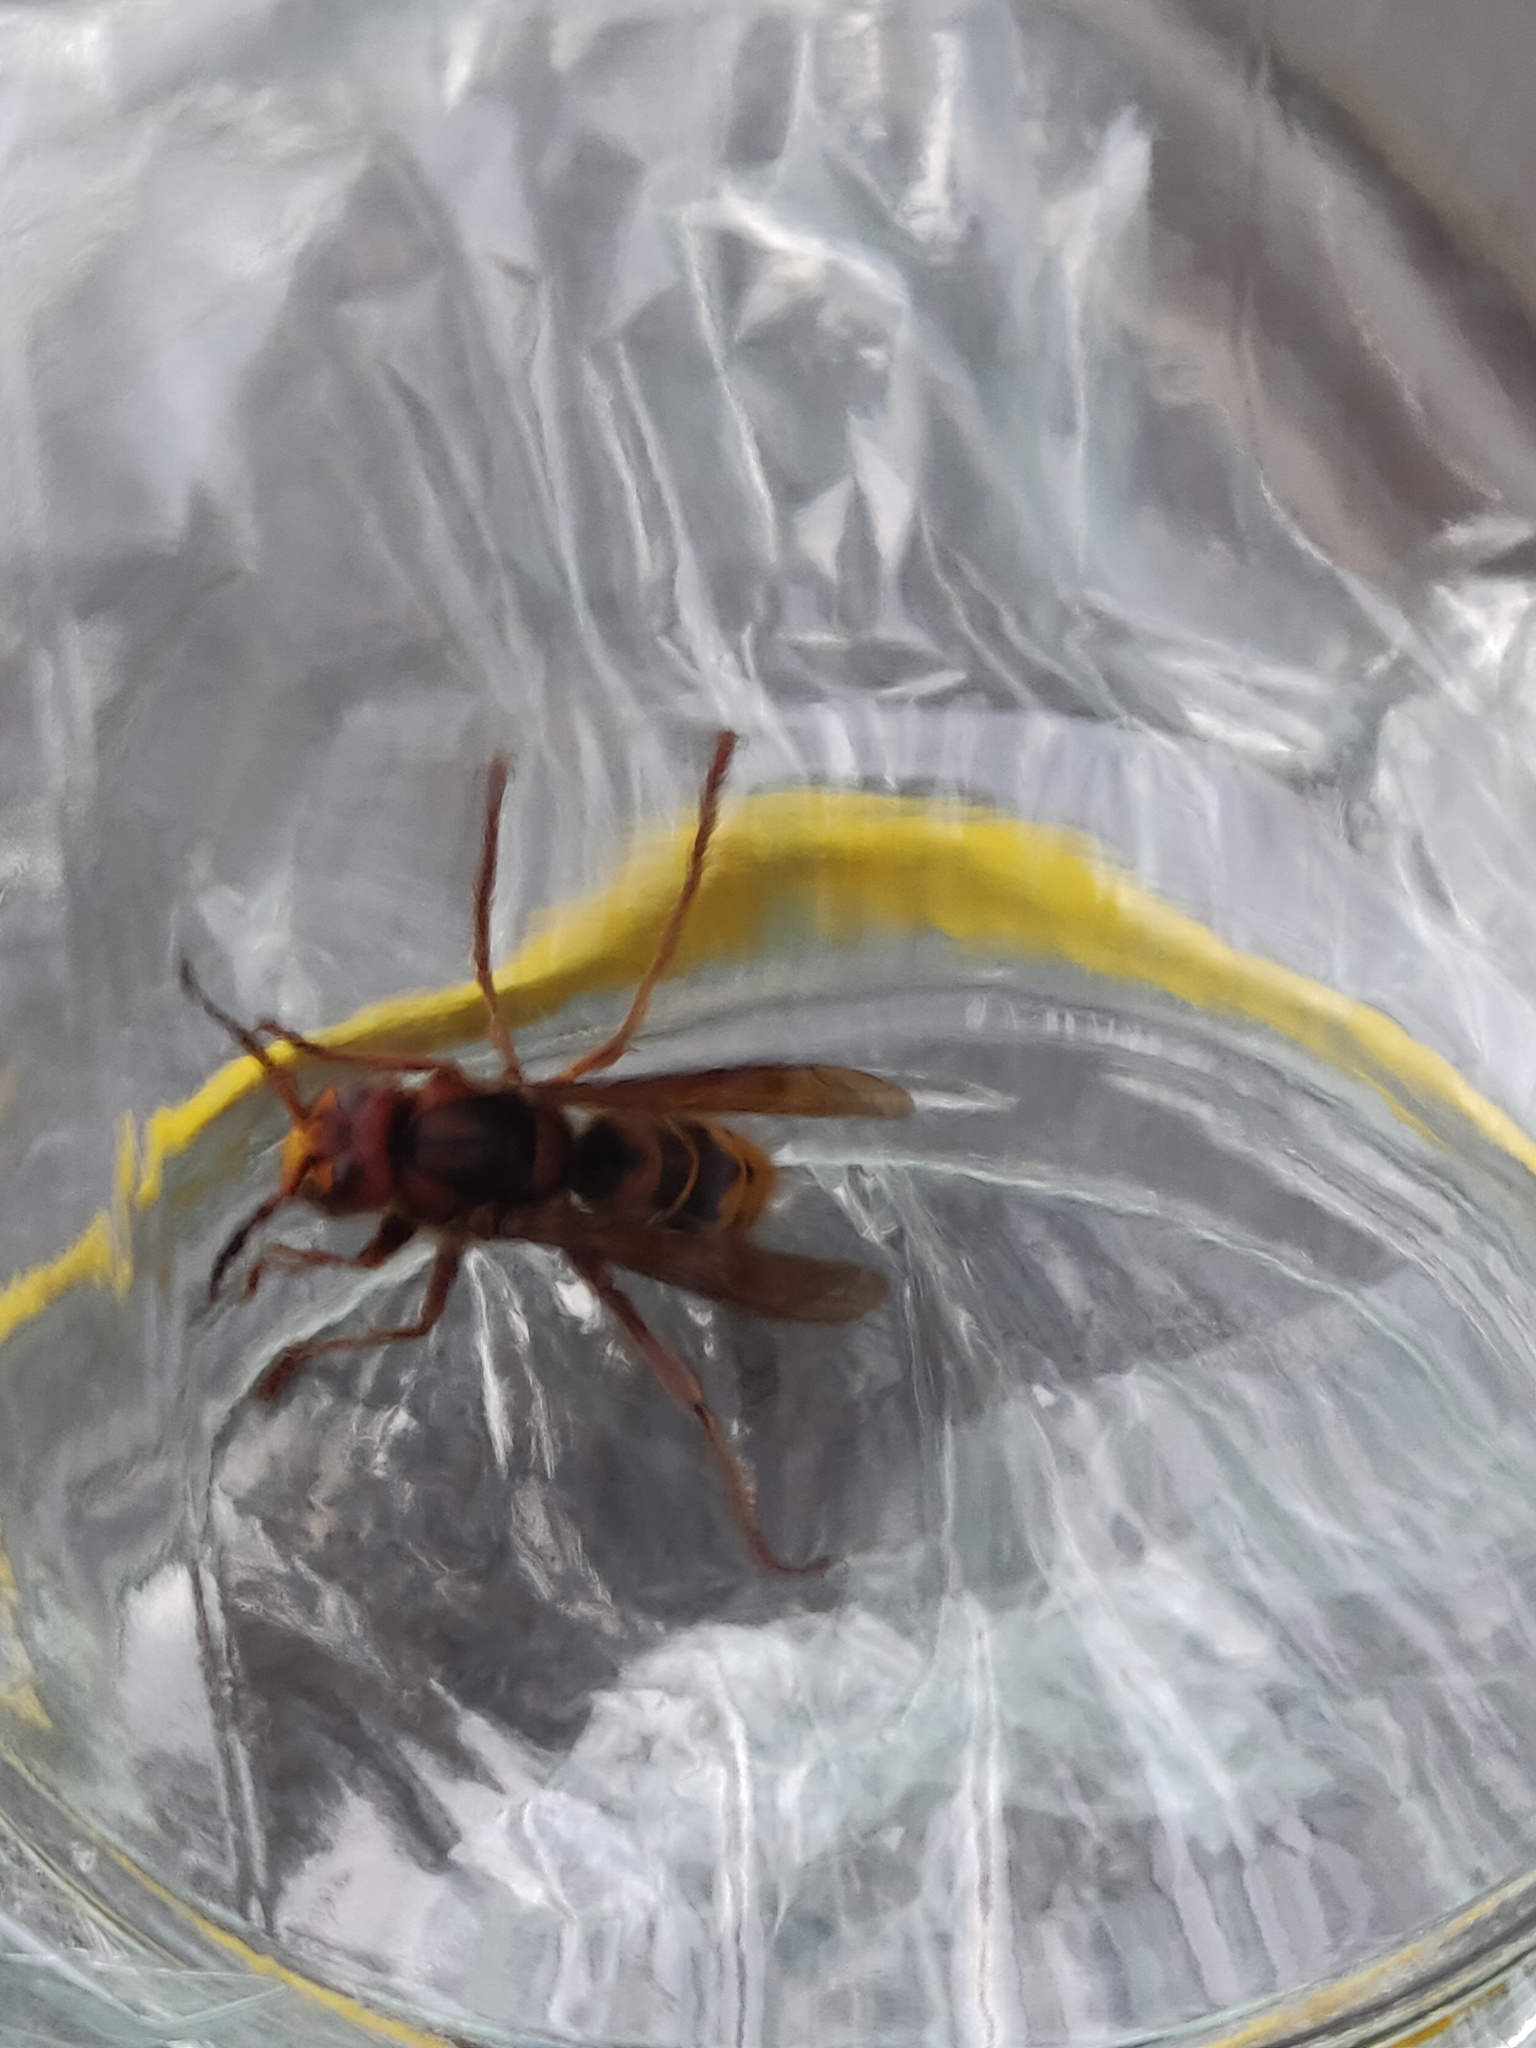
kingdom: Animalia
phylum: Arthropoda
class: Insecta
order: Hymenoptera
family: Vespidae
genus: Vespa
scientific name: Vespa crabro
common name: Hornet
